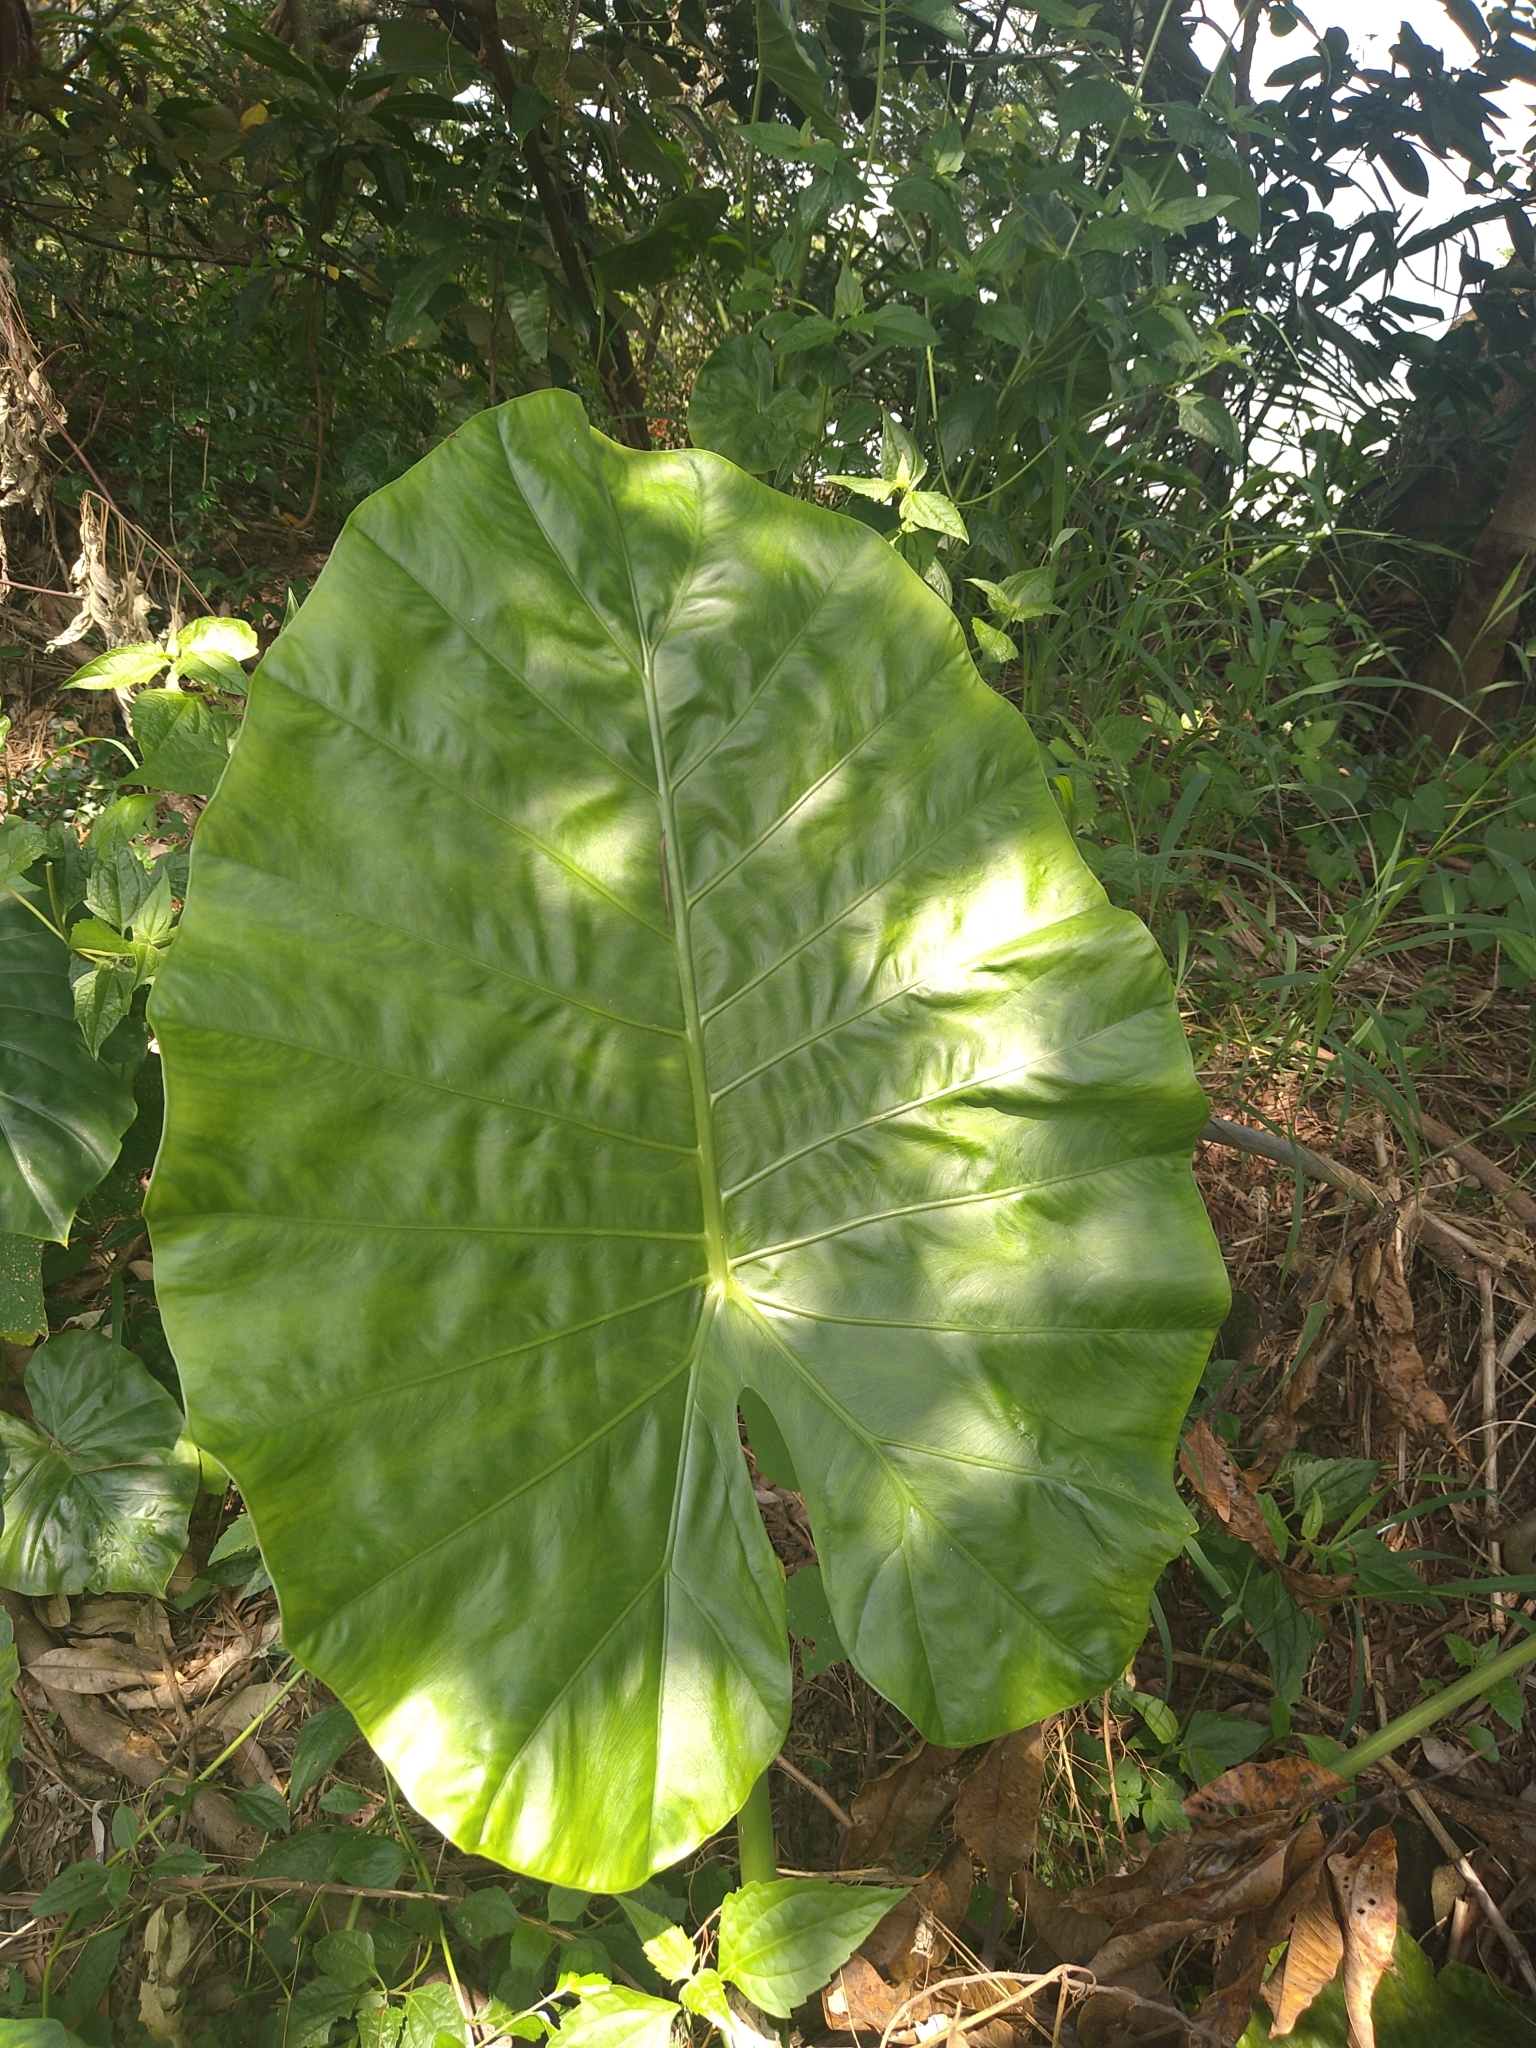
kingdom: Plantae
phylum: Tracheophyta
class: Liliopsida
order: Alismatales
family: Araceae
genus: Alocasia
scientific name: Alocasia odora
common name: Asian taro
